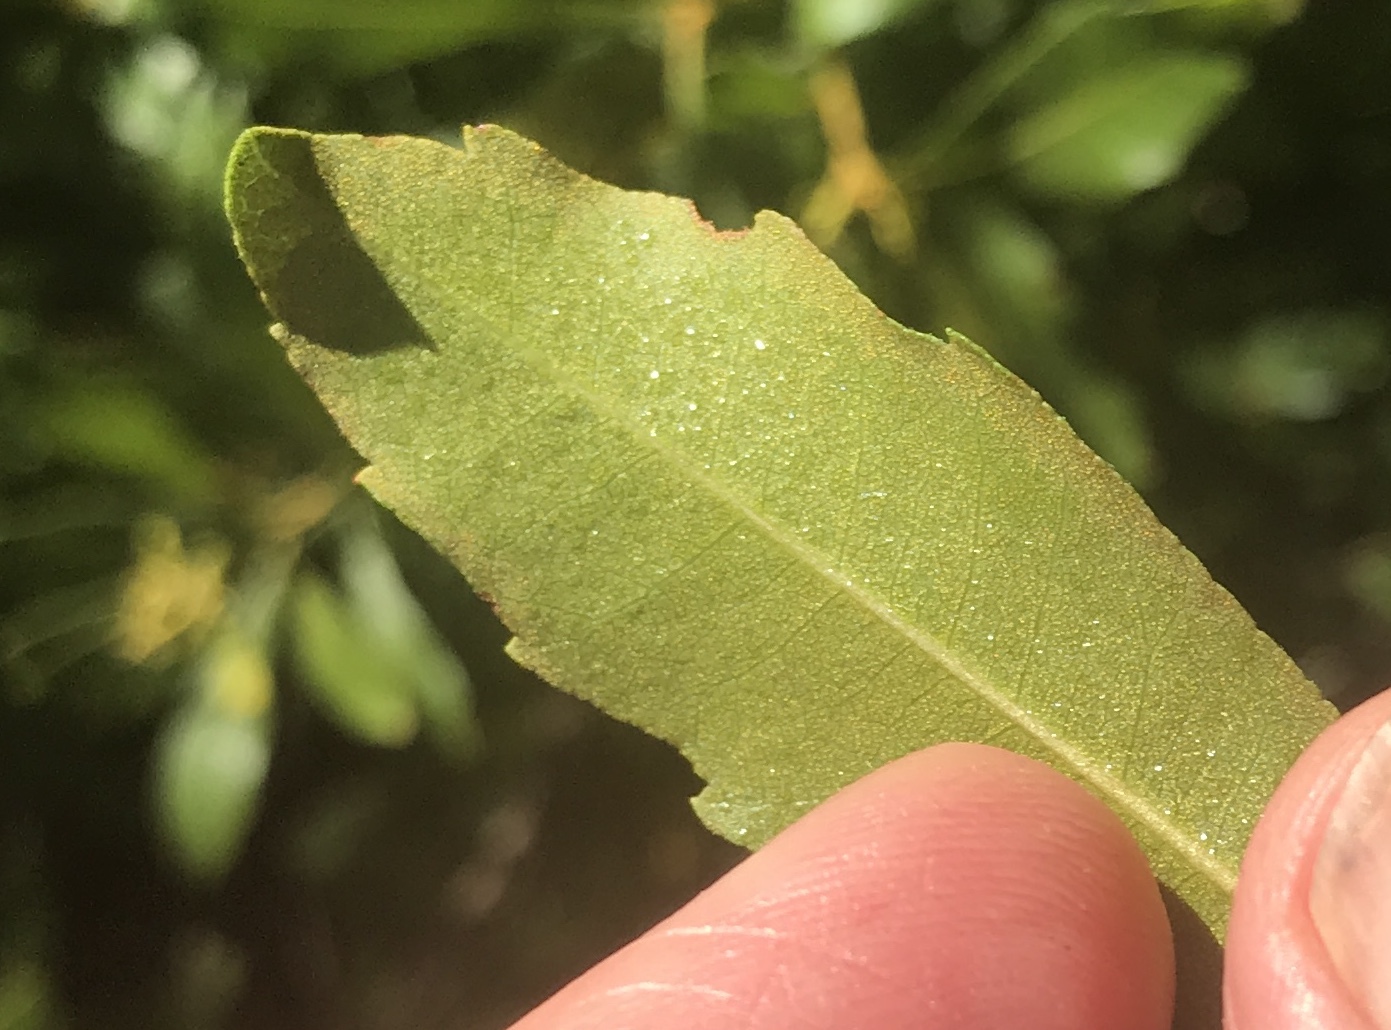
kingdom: Plantae
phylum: Tracheophyta
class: Magnoliopsida
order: Fagales
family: Myricaceae
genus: Morella
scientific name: Morella cerifera
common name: Wax myrtle
